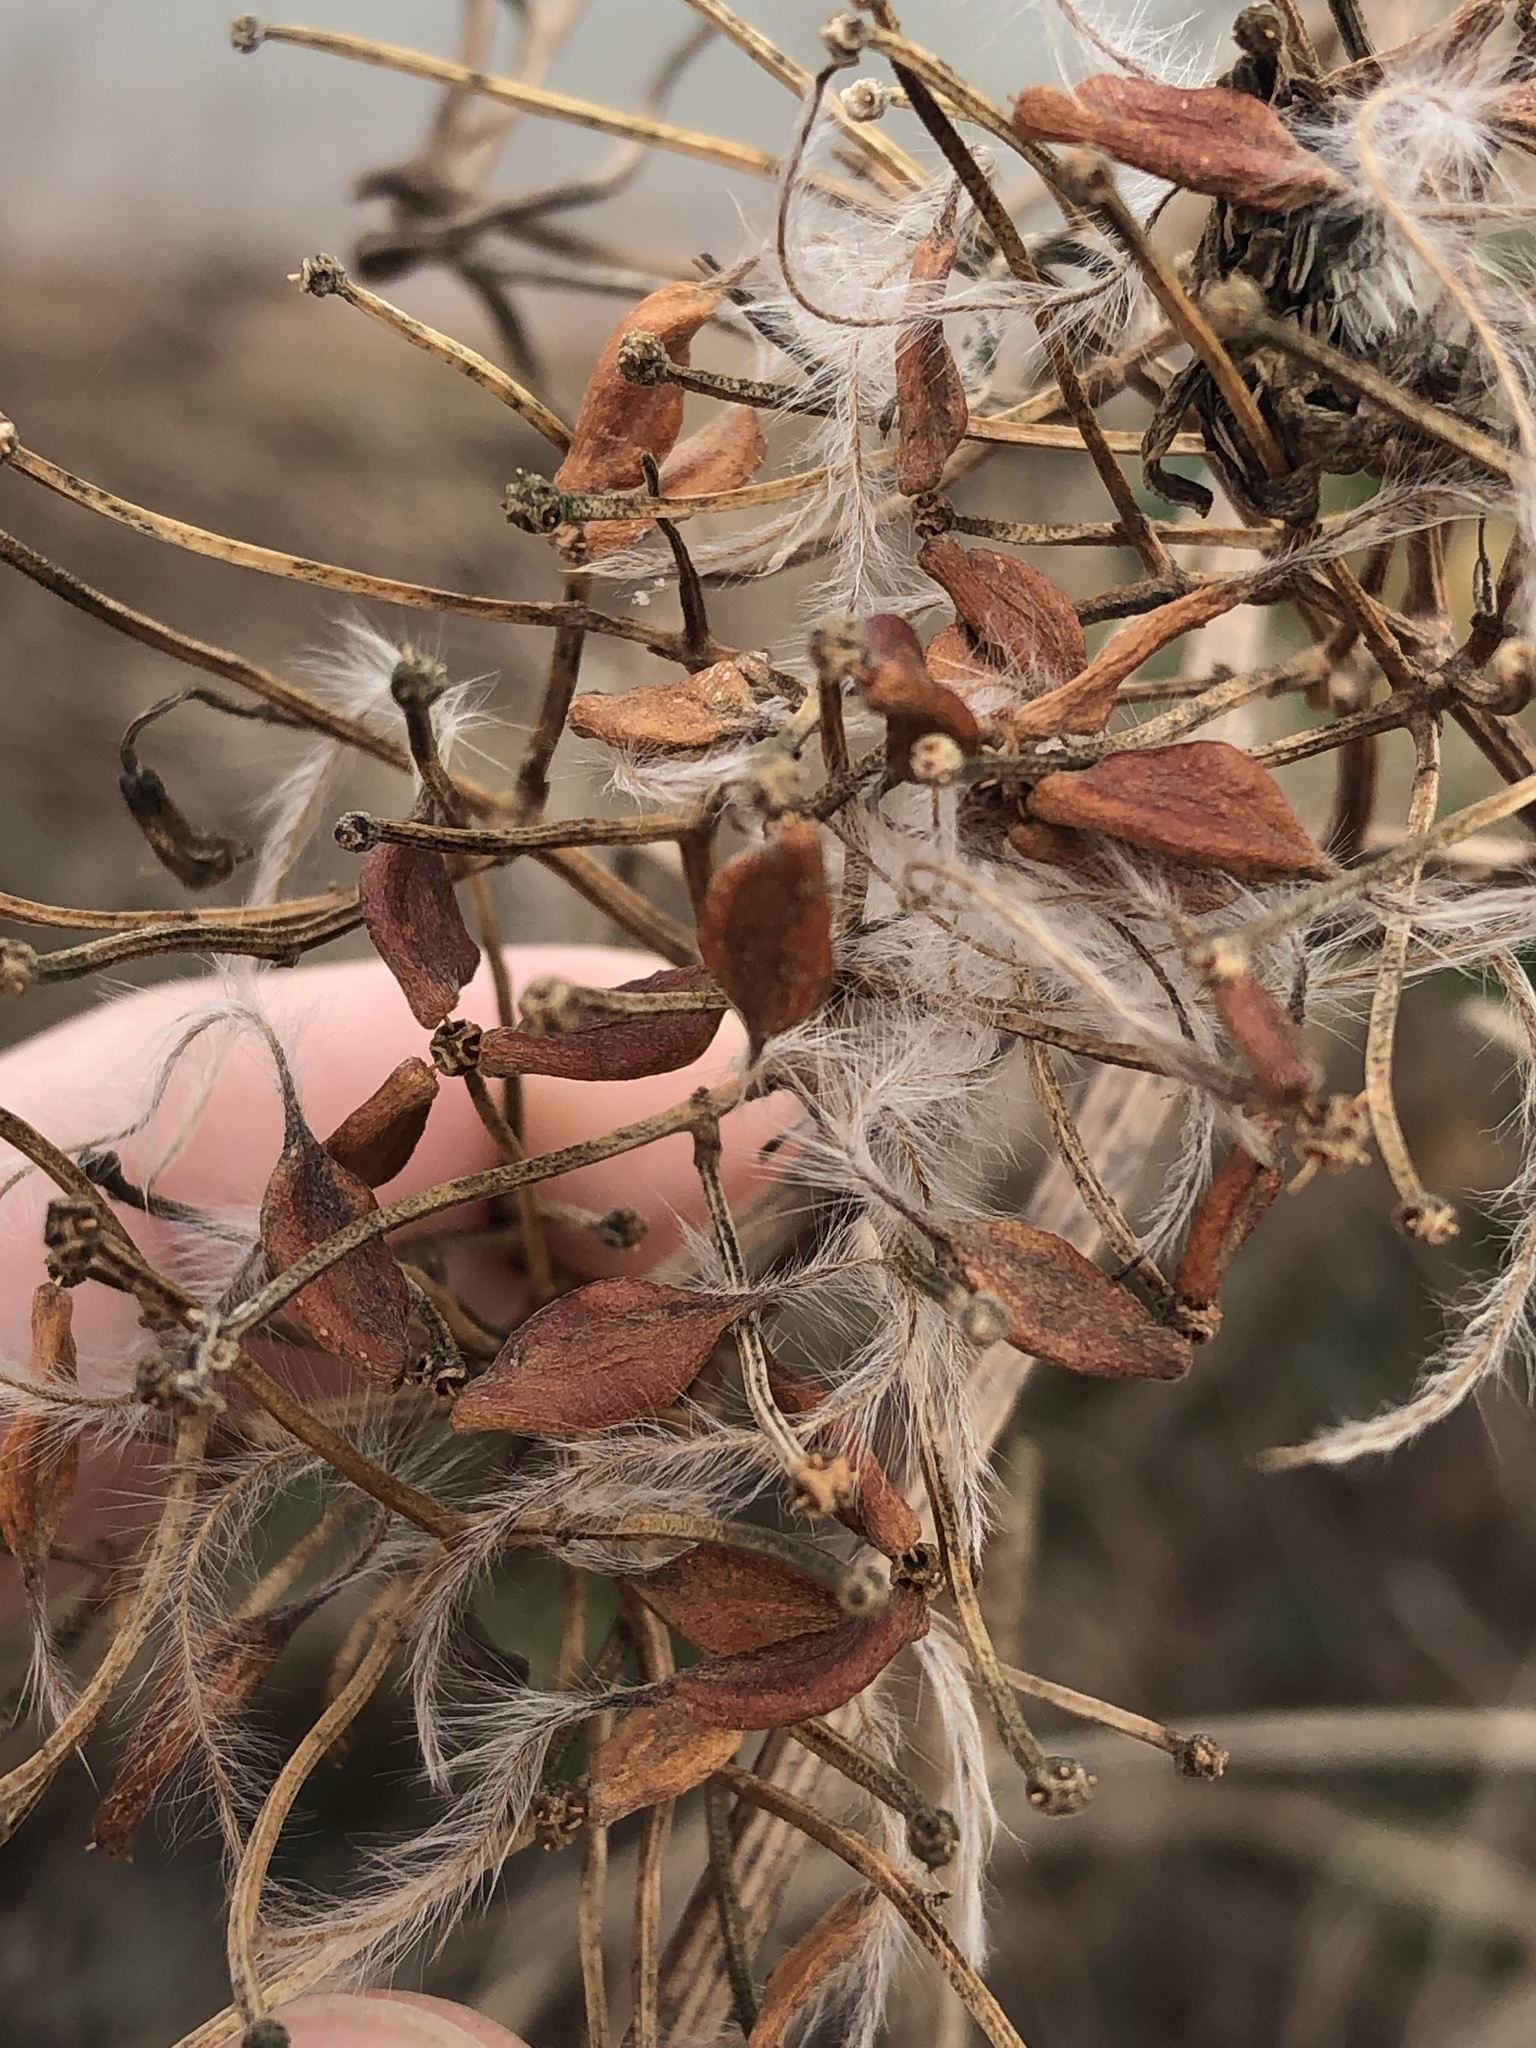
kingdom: Plantae
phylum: Tracheophyta
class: Magnoliopsida
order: Ranunculales
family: Ranunculaceae
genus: Clematis
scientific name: Clematis terniflora
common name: Sweet autumn clematis
